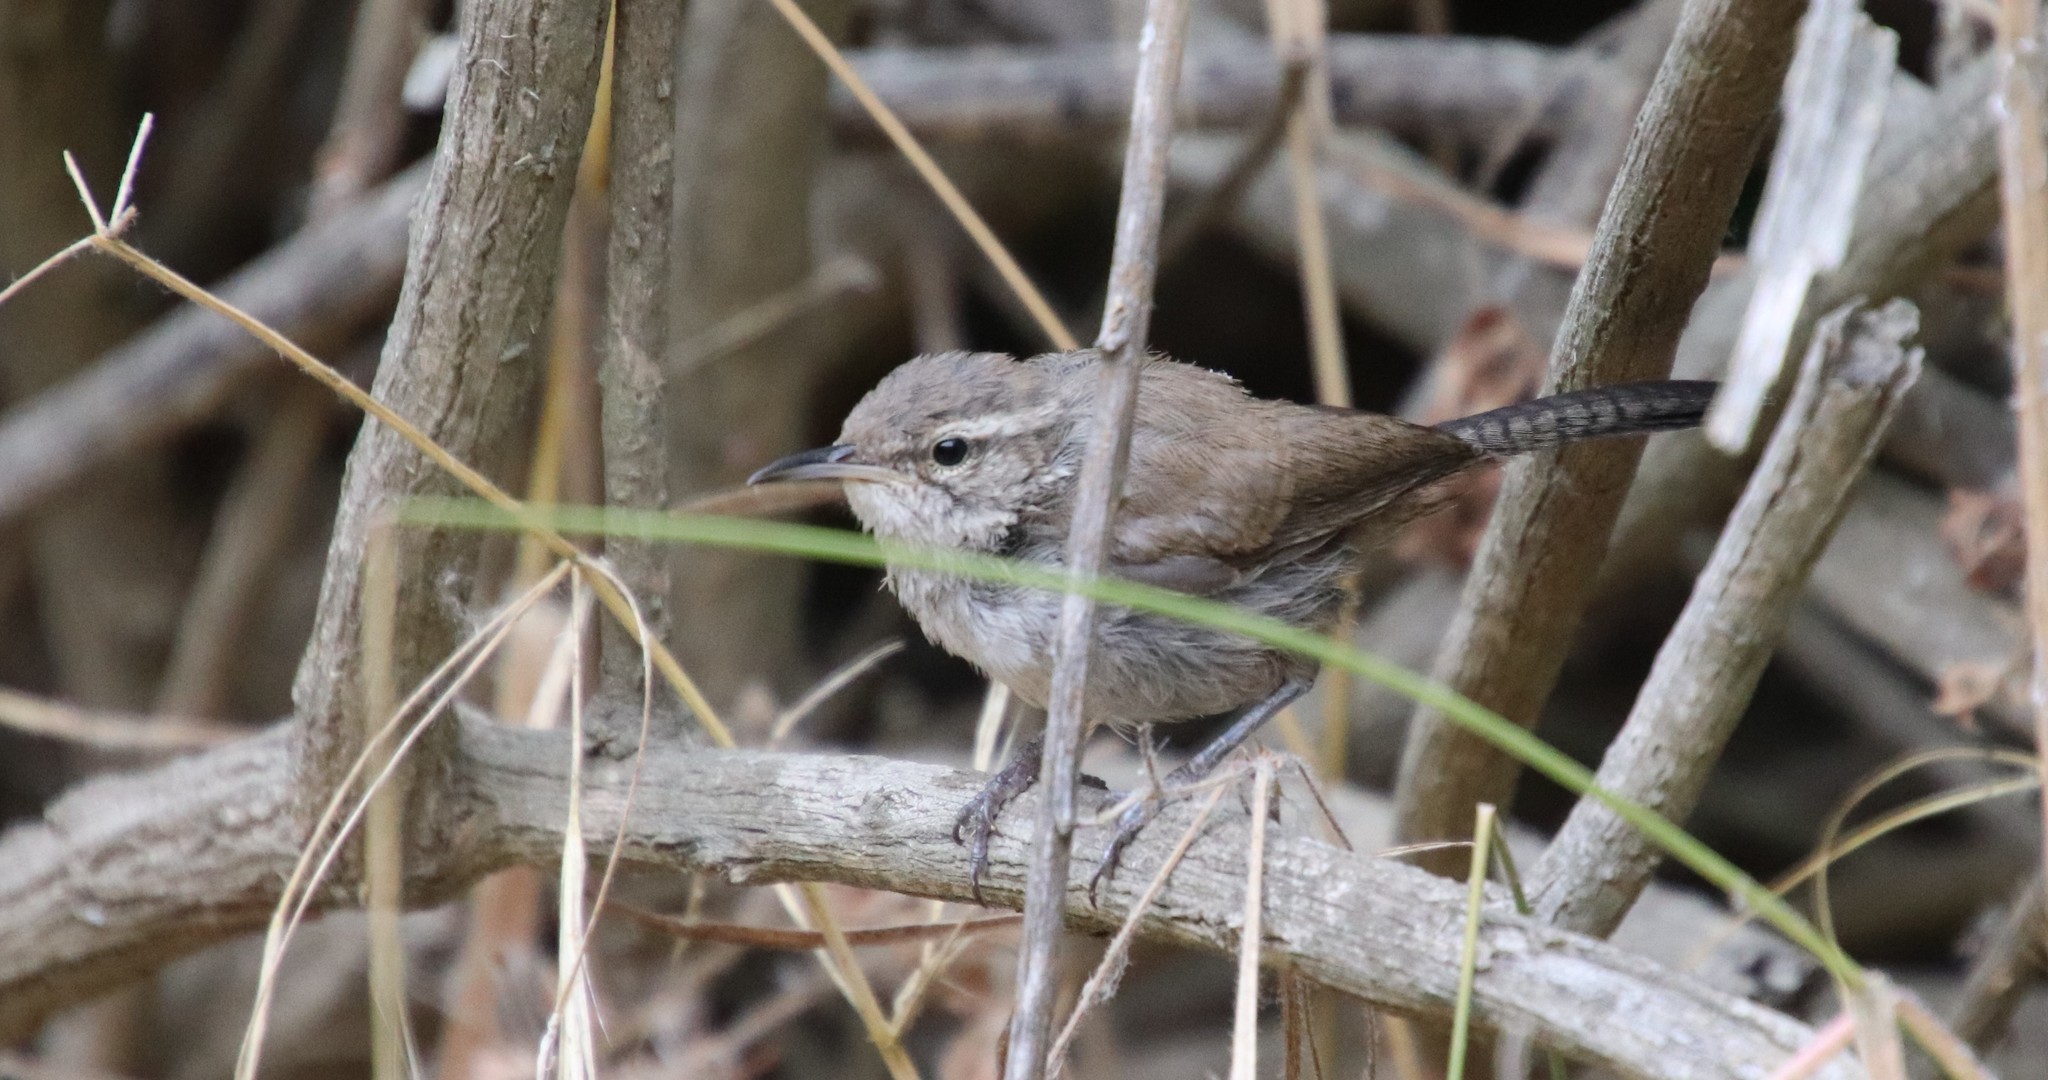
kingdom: Animalia
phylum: Chordata
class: Aves
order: Passeriformes
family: Troglodytidae
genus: Thryomanes
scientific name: Thryomanes bewickii
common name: Bewick's wren
